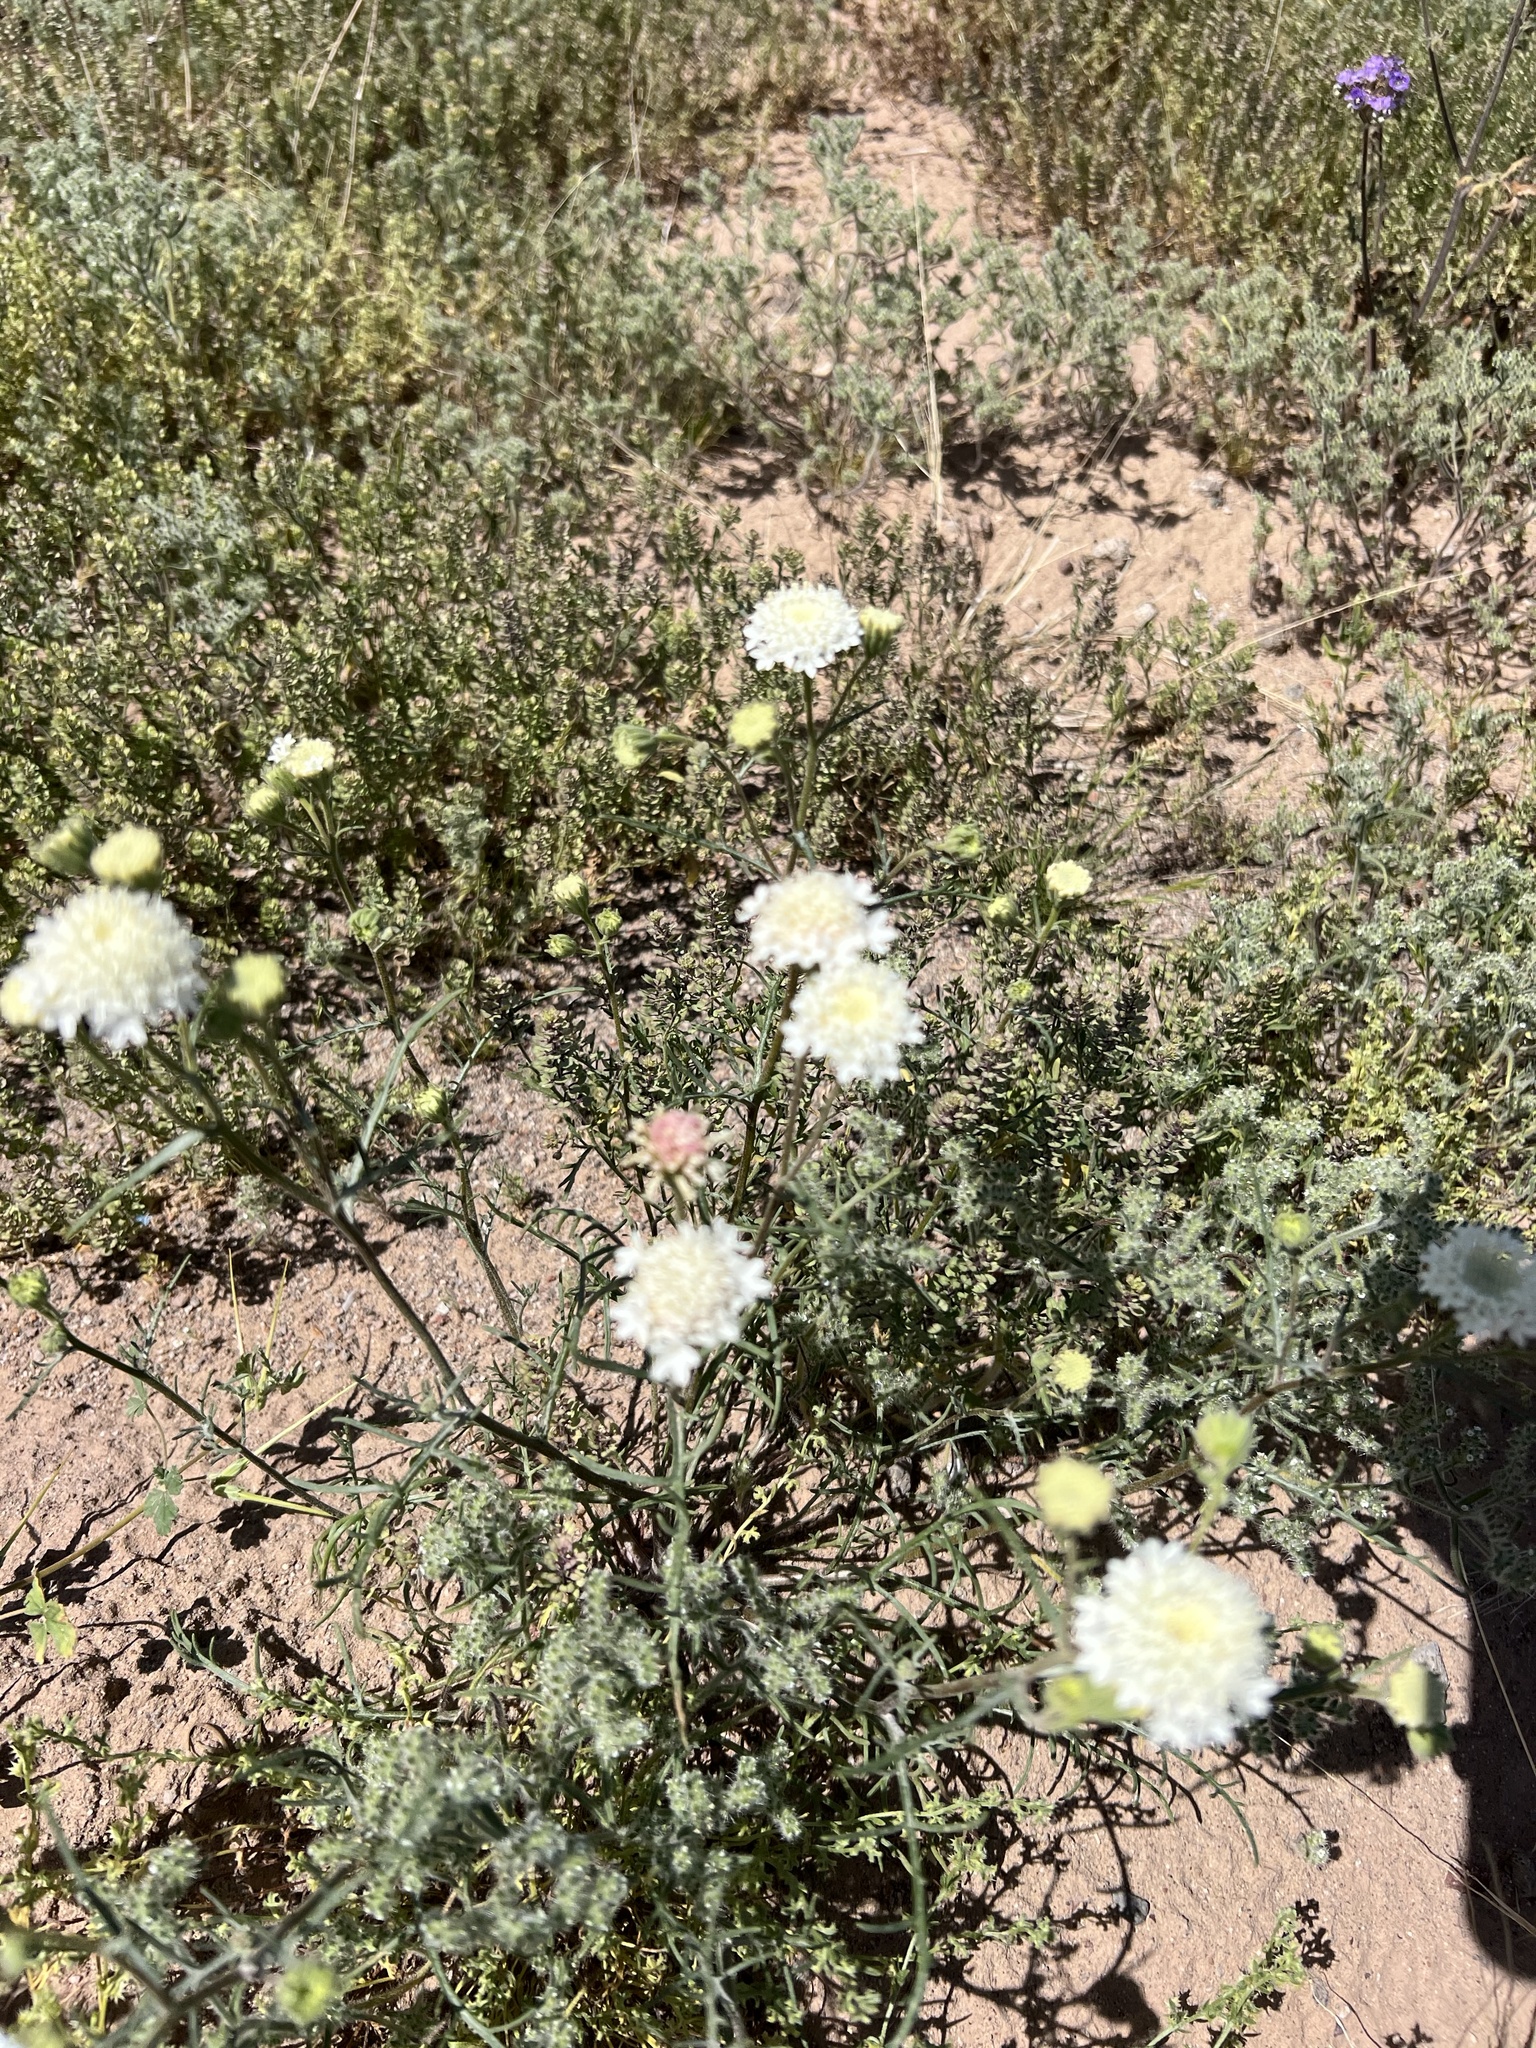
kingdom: Plantae
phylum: Tracheophyta
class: Magnoliopsida
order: Asterales
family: Asteraceae
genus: Chaenactis
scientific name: Chaenactis stevioides
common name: Desert pincushion
